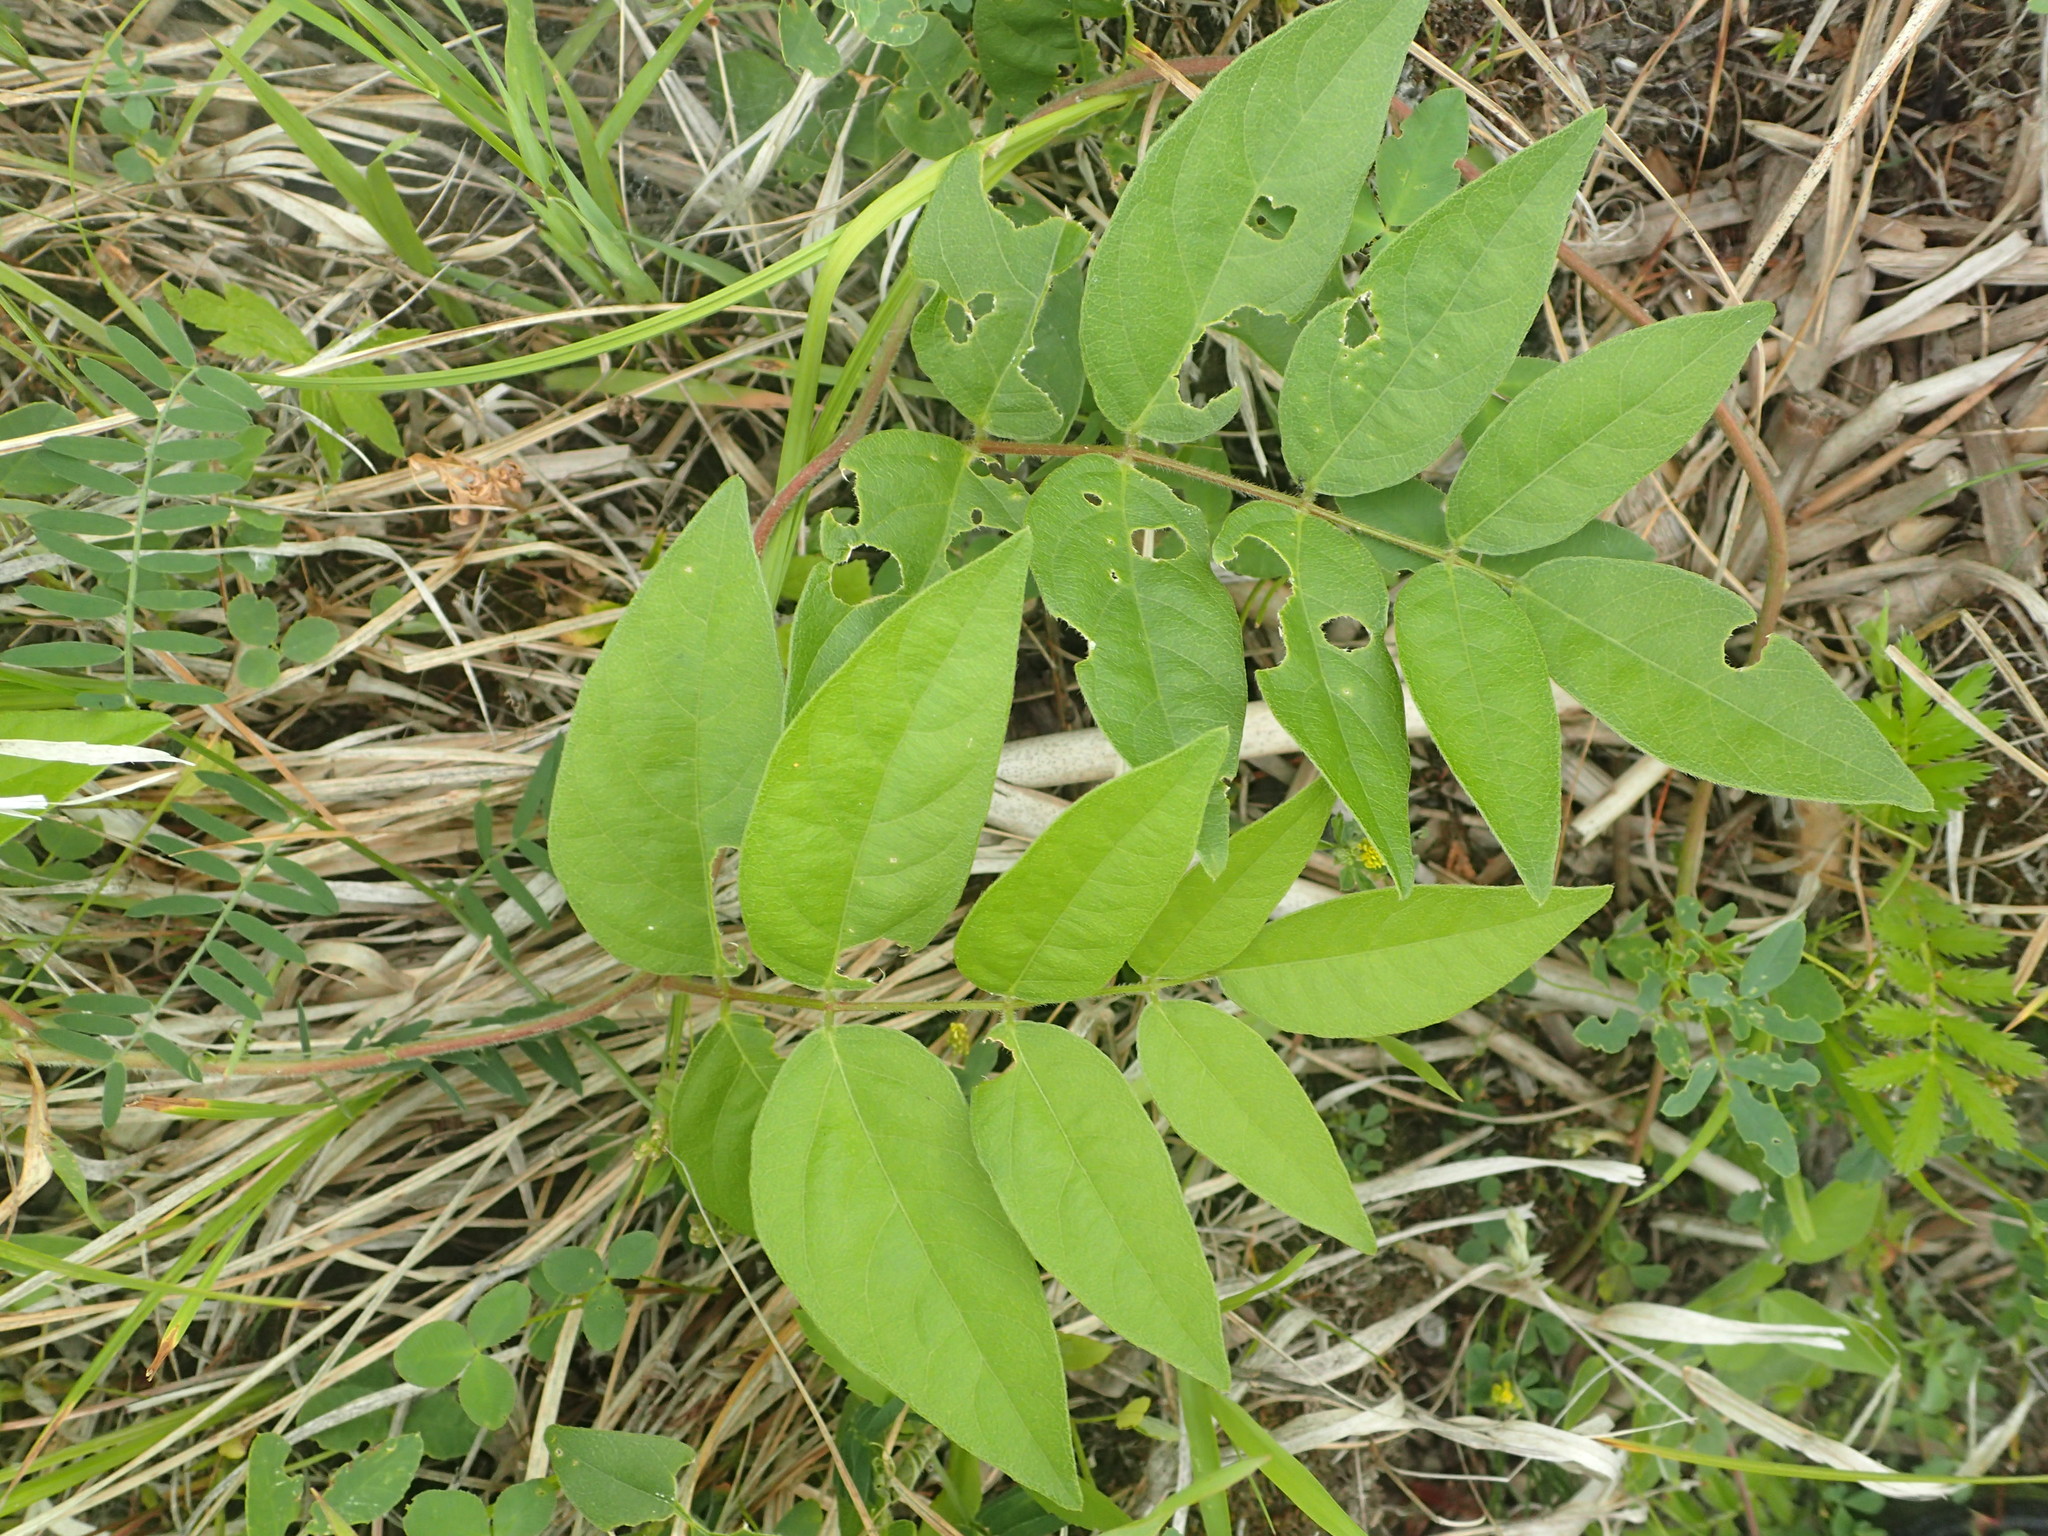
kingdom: Plantae
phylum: Tracheophyta
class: Magnoliopsida
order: Fabales
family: Fabaceae
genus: Apios
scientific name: Apios americana
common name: American potato-bean
